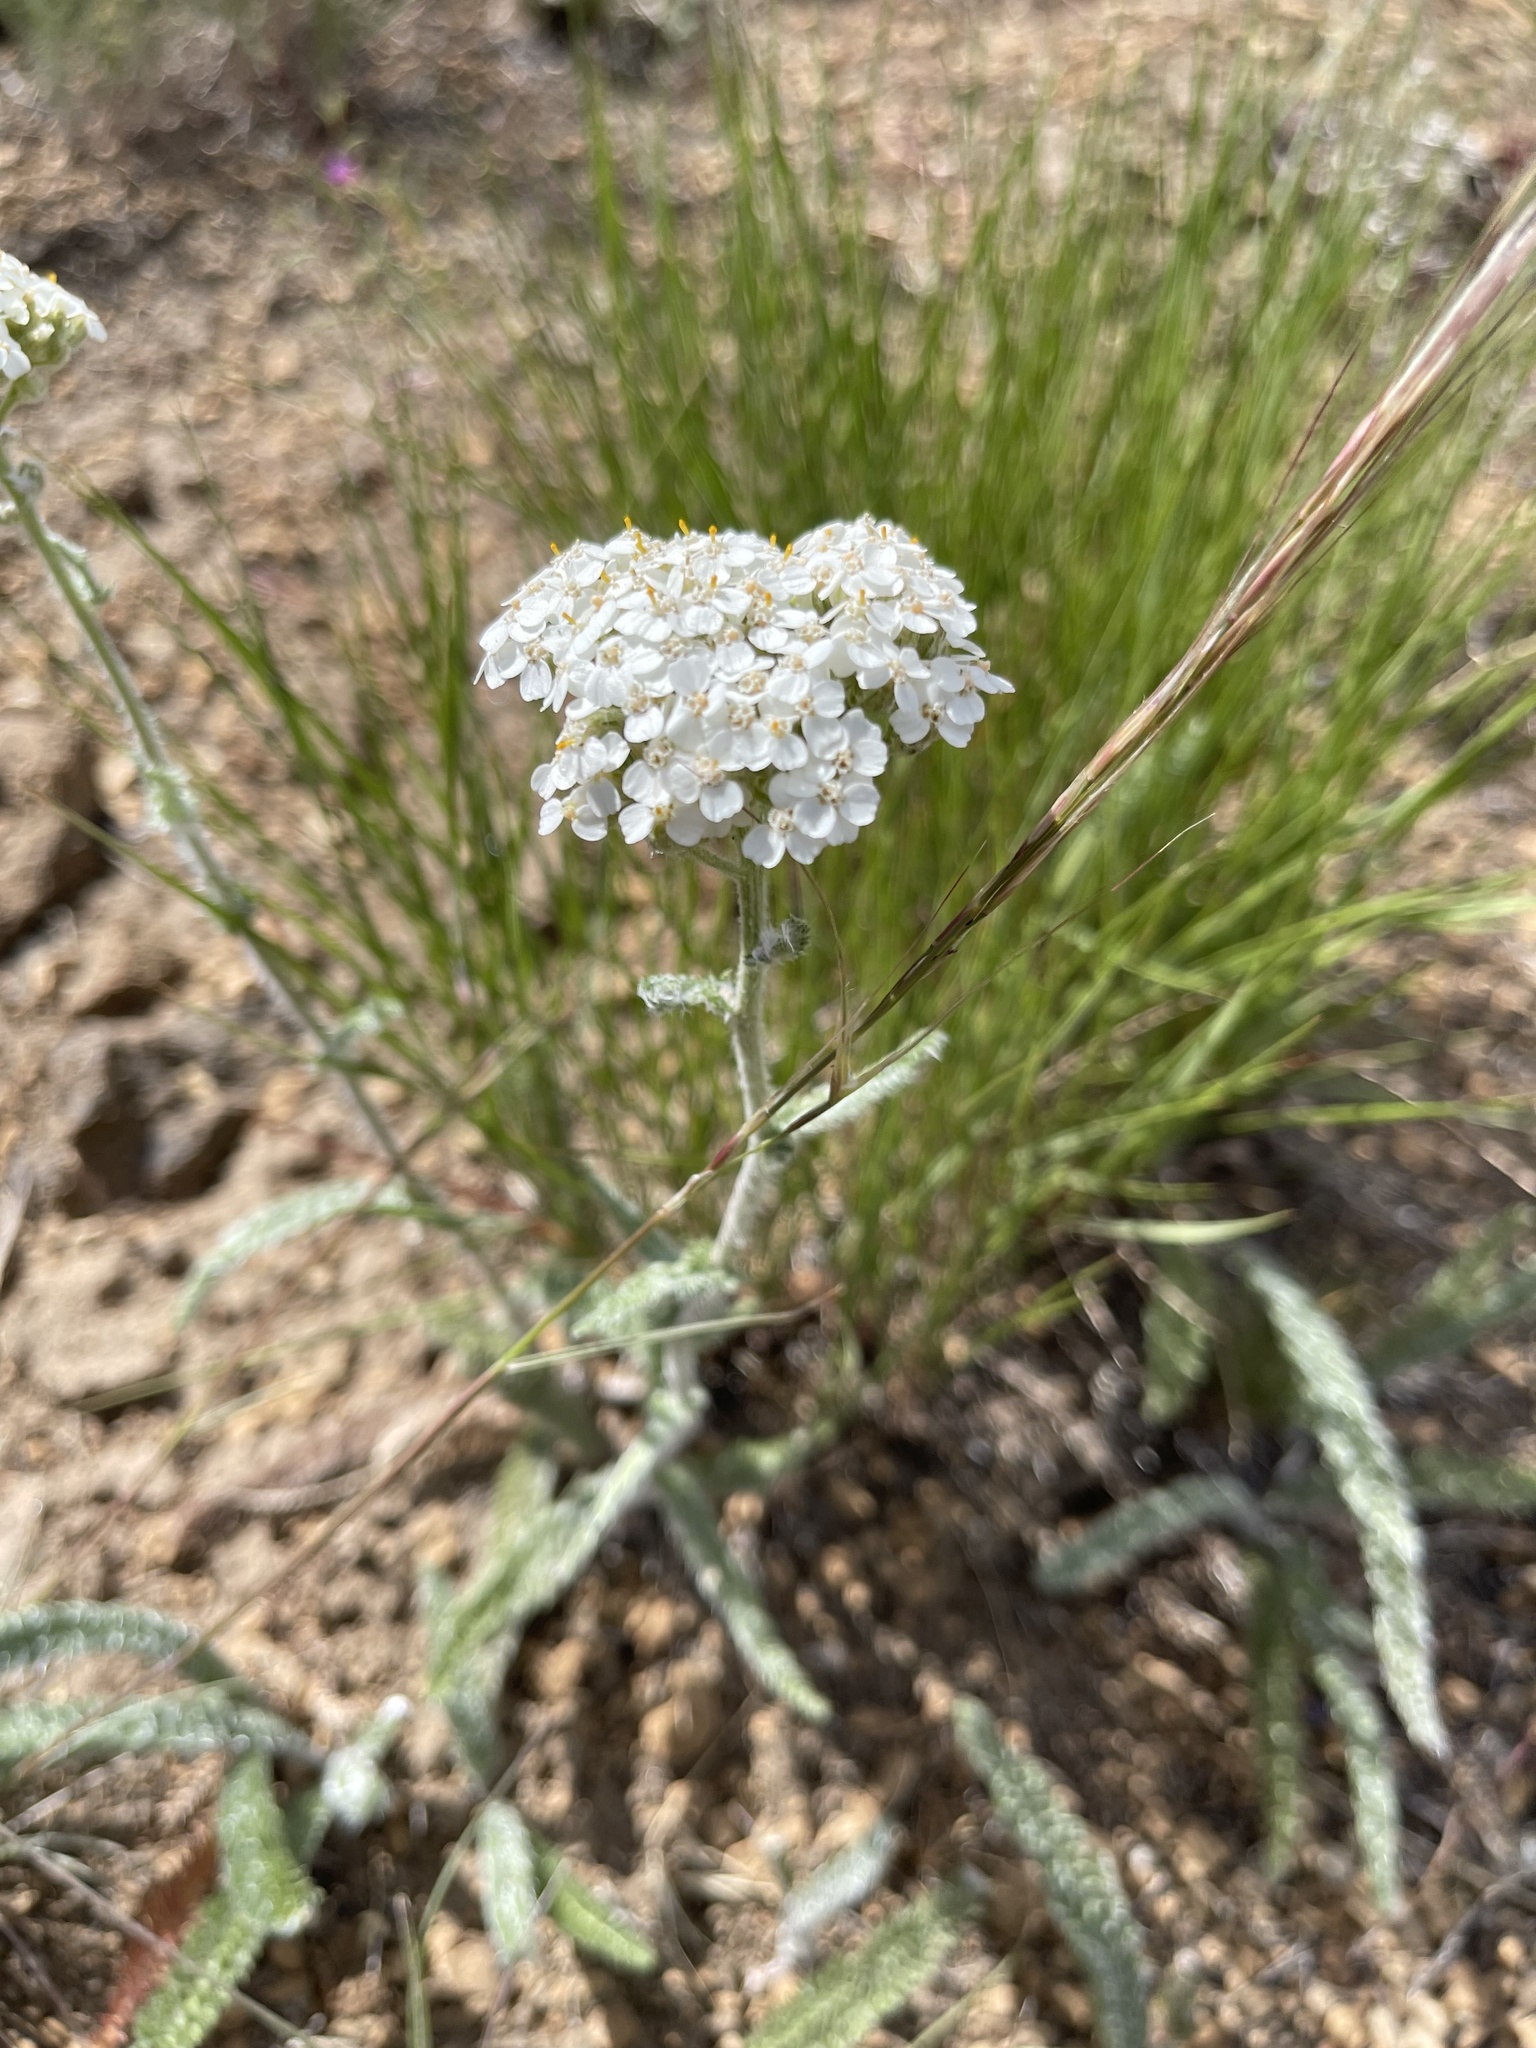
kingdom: Plantae
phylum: Tracheophyta
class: Magnoliopsida
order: Asterales
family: Asteraceae
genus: Achillea
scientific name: Achillea millefolium
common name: Yarrow
